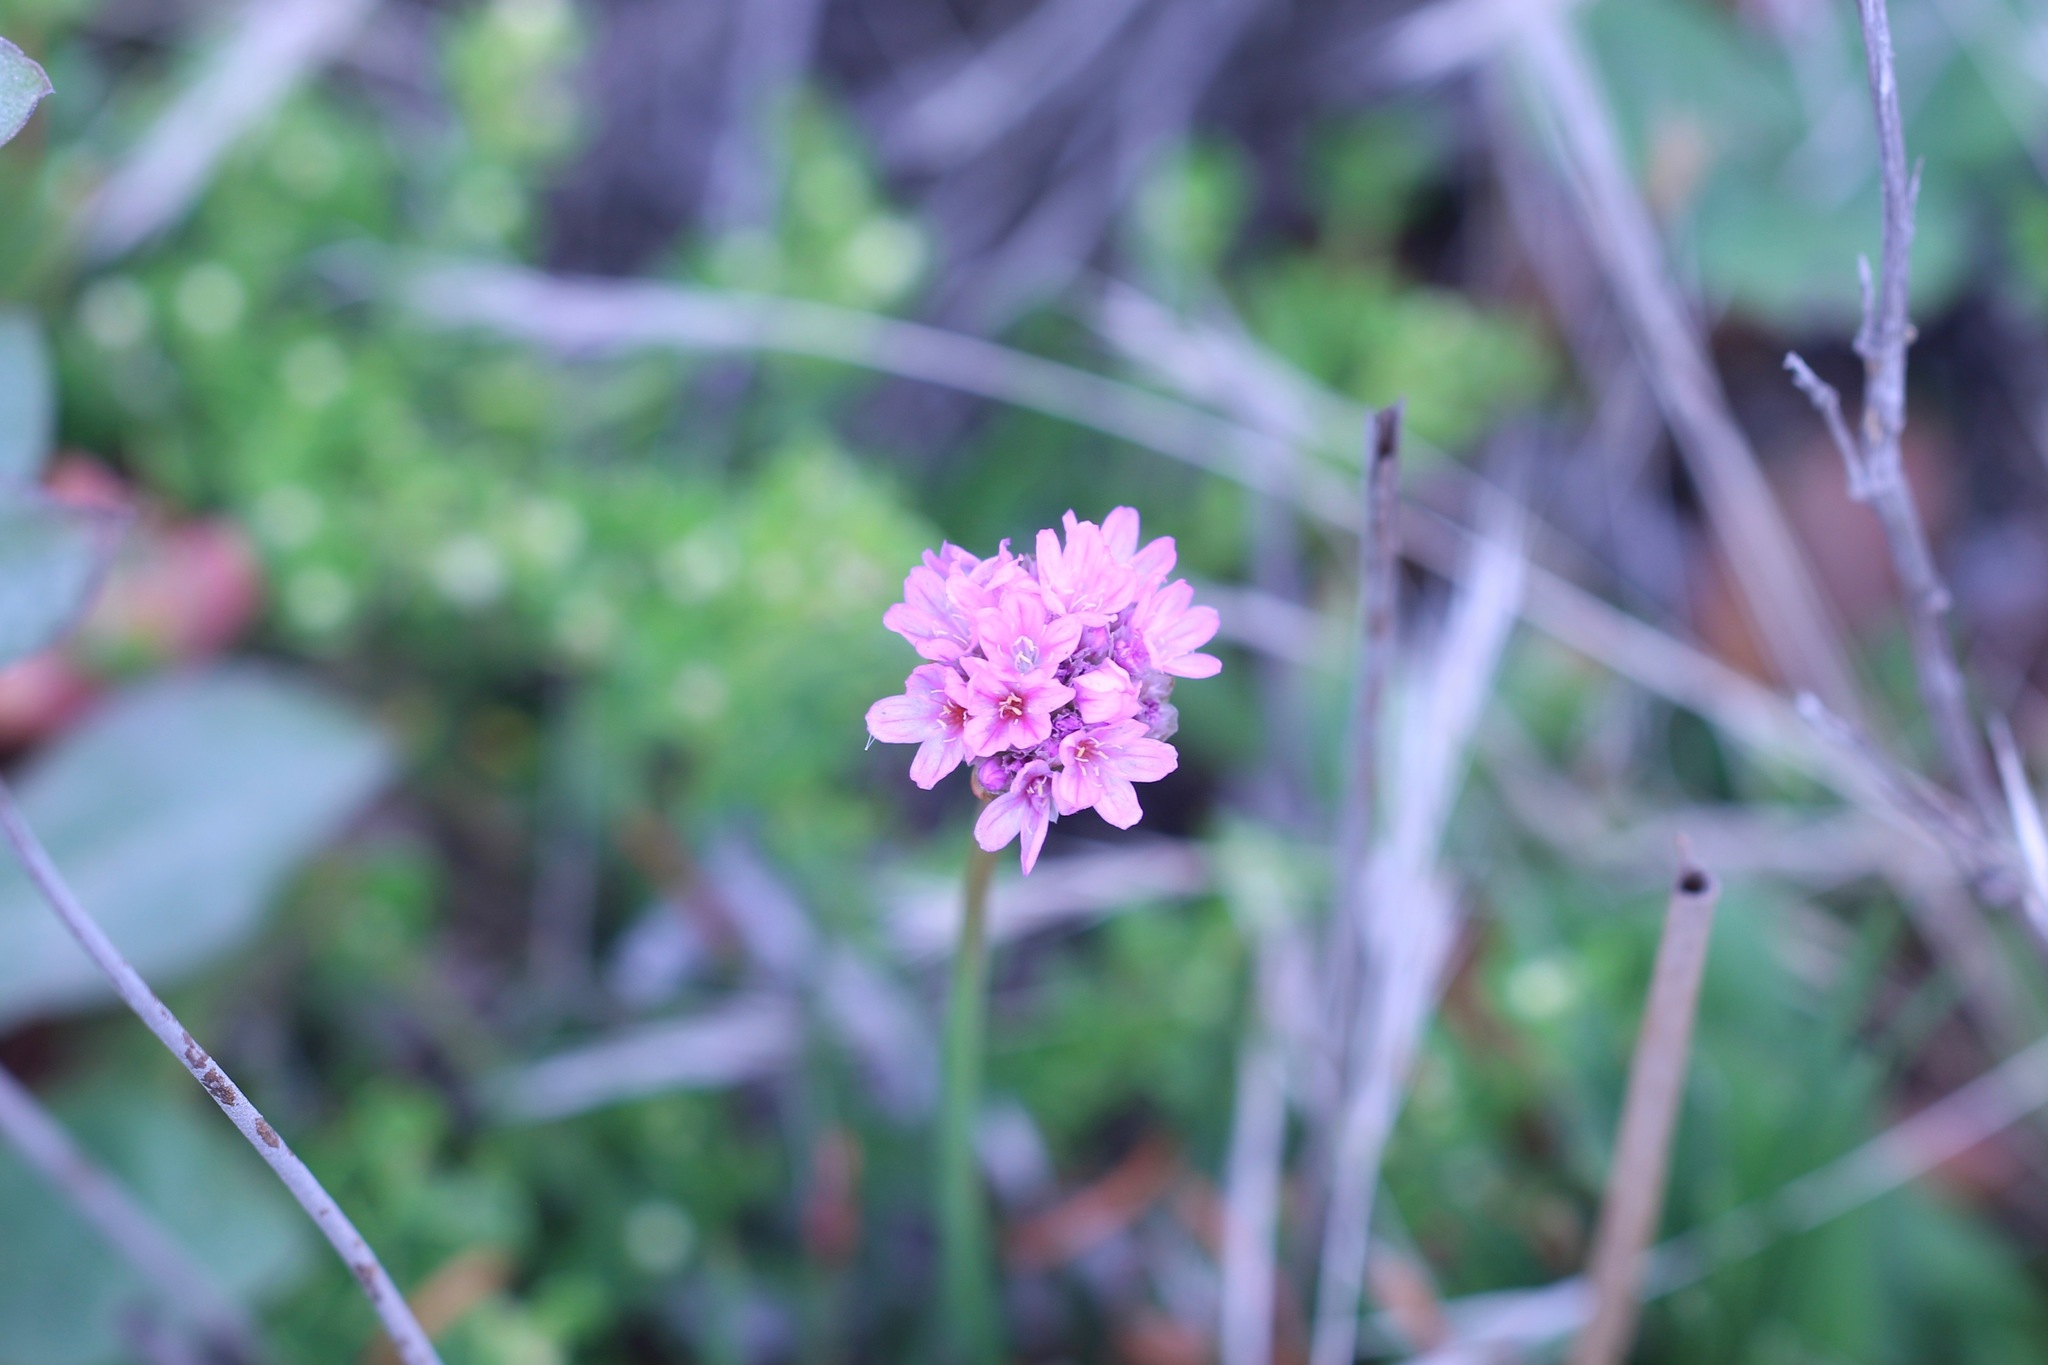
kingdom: Plantae
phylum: Tracheophyta
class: Magnoliopsida
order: Caryophyllales
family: Plumbaginaceae
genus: Armeria
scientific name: Armeria maritima
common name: Thrift
